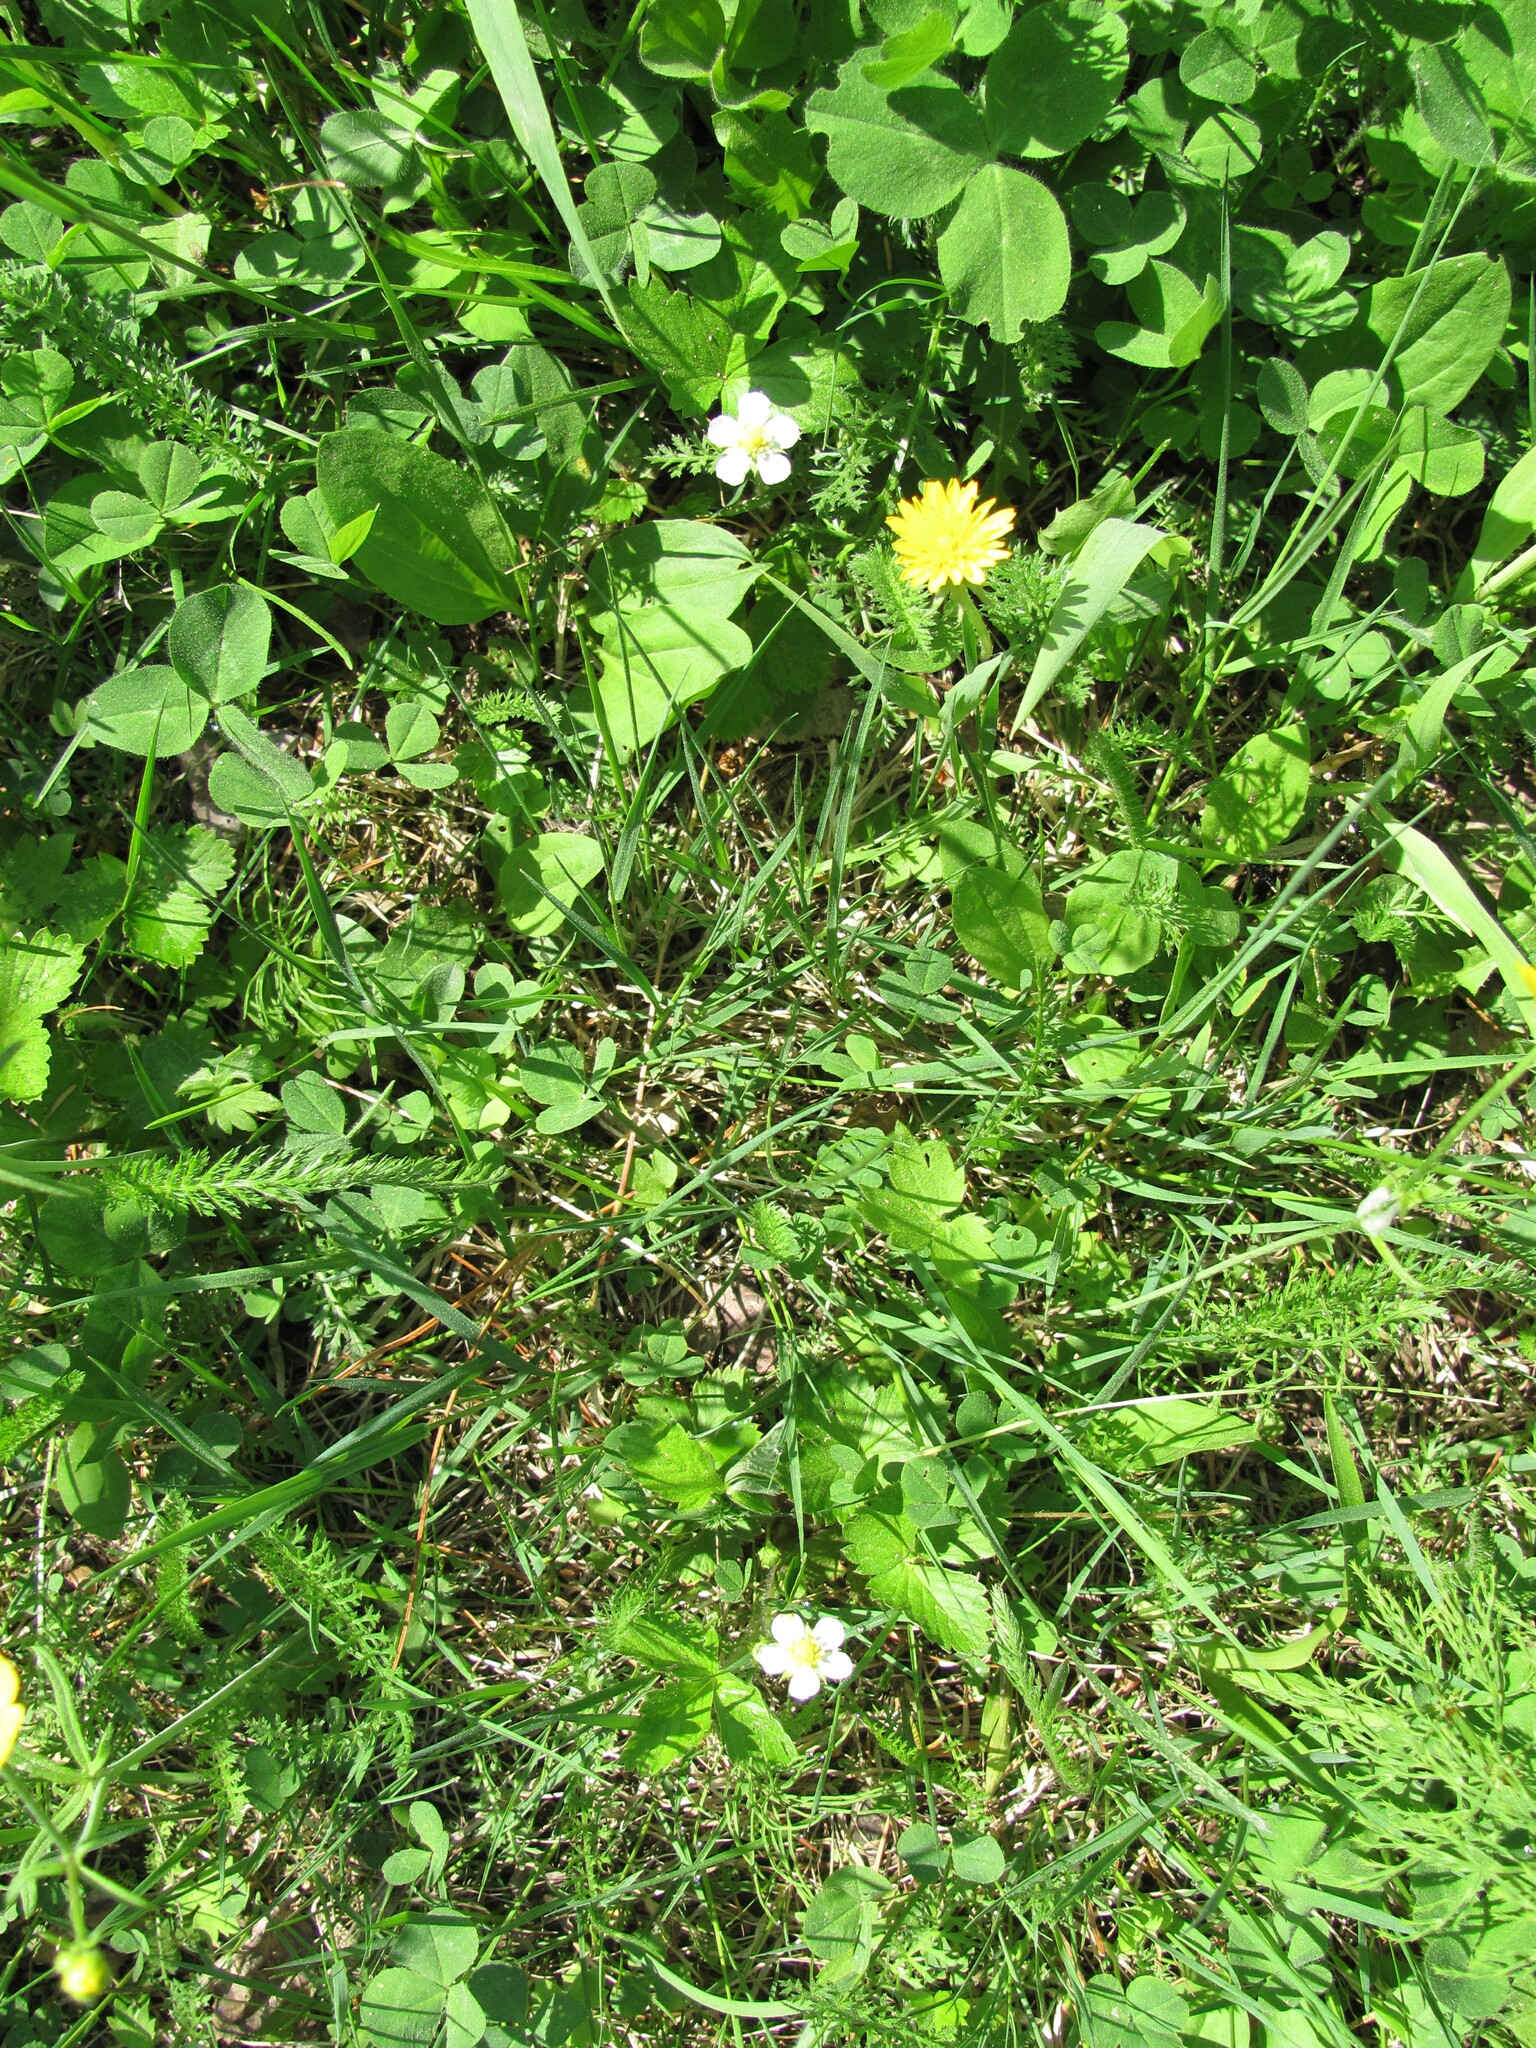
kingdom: Plantae
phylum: Tracheophyta
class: Magnoliopsida
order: Rosales
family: Rosaceae
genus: Fragaria
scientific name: Fragaria vesca
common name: Wild strawberry
